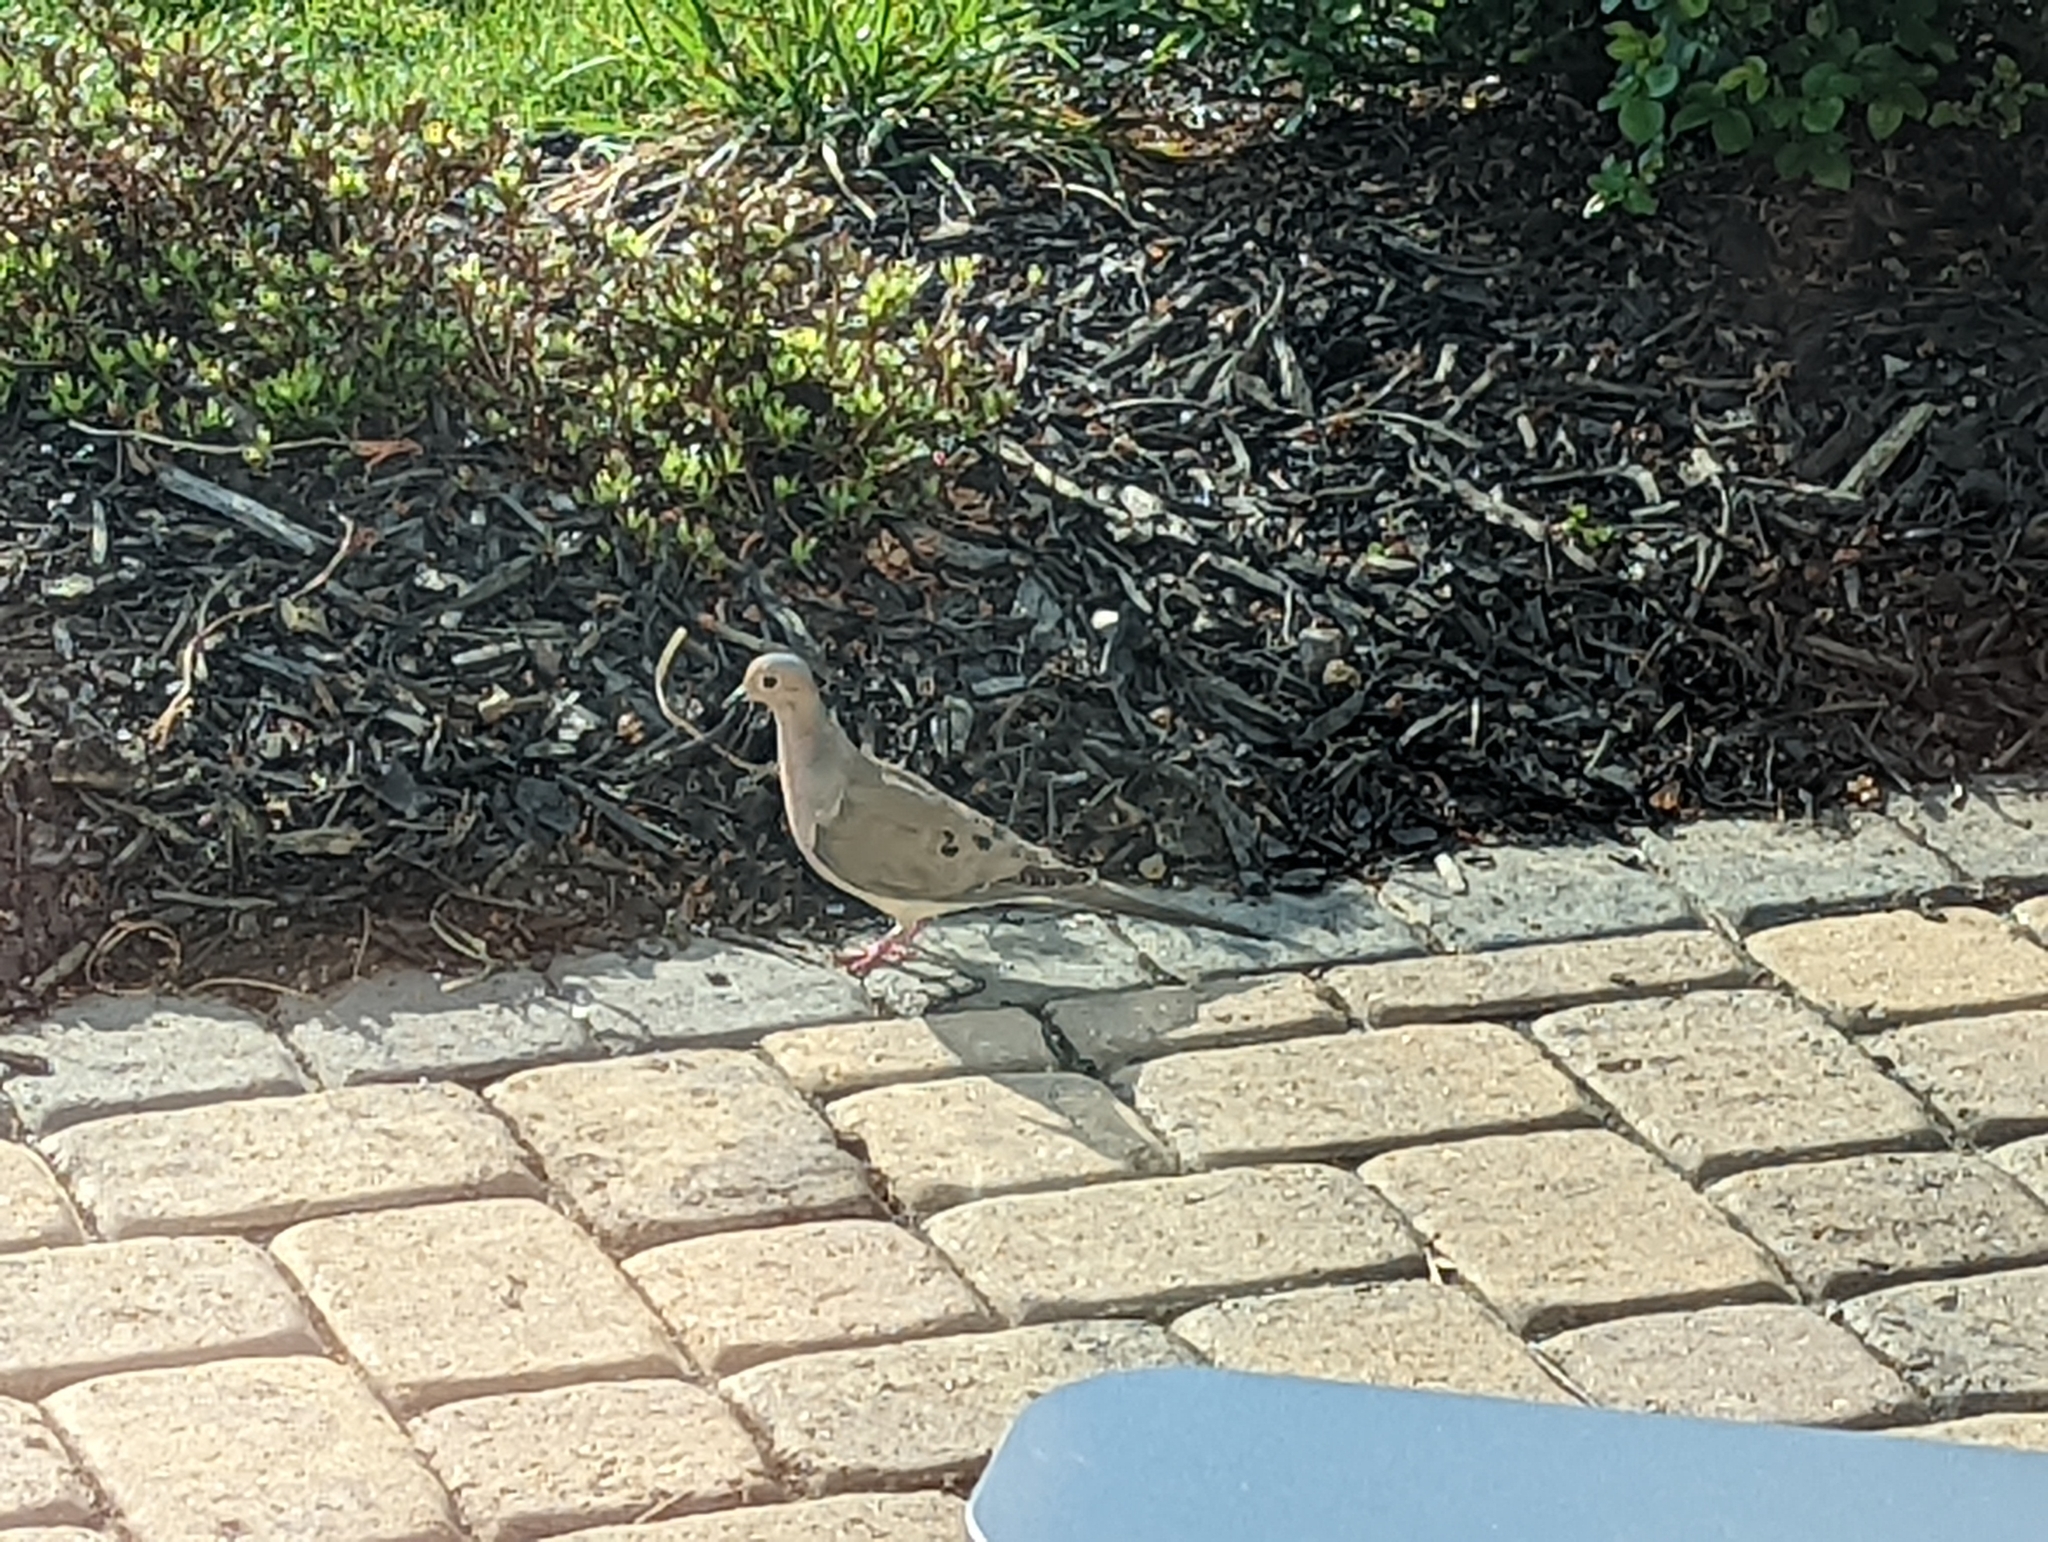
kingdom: Animalia
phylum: Chordata
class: Aves
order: Columbiformes
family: Columbidae
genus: Zenaida
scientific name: Zenaida macroura
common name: Mourning dove
